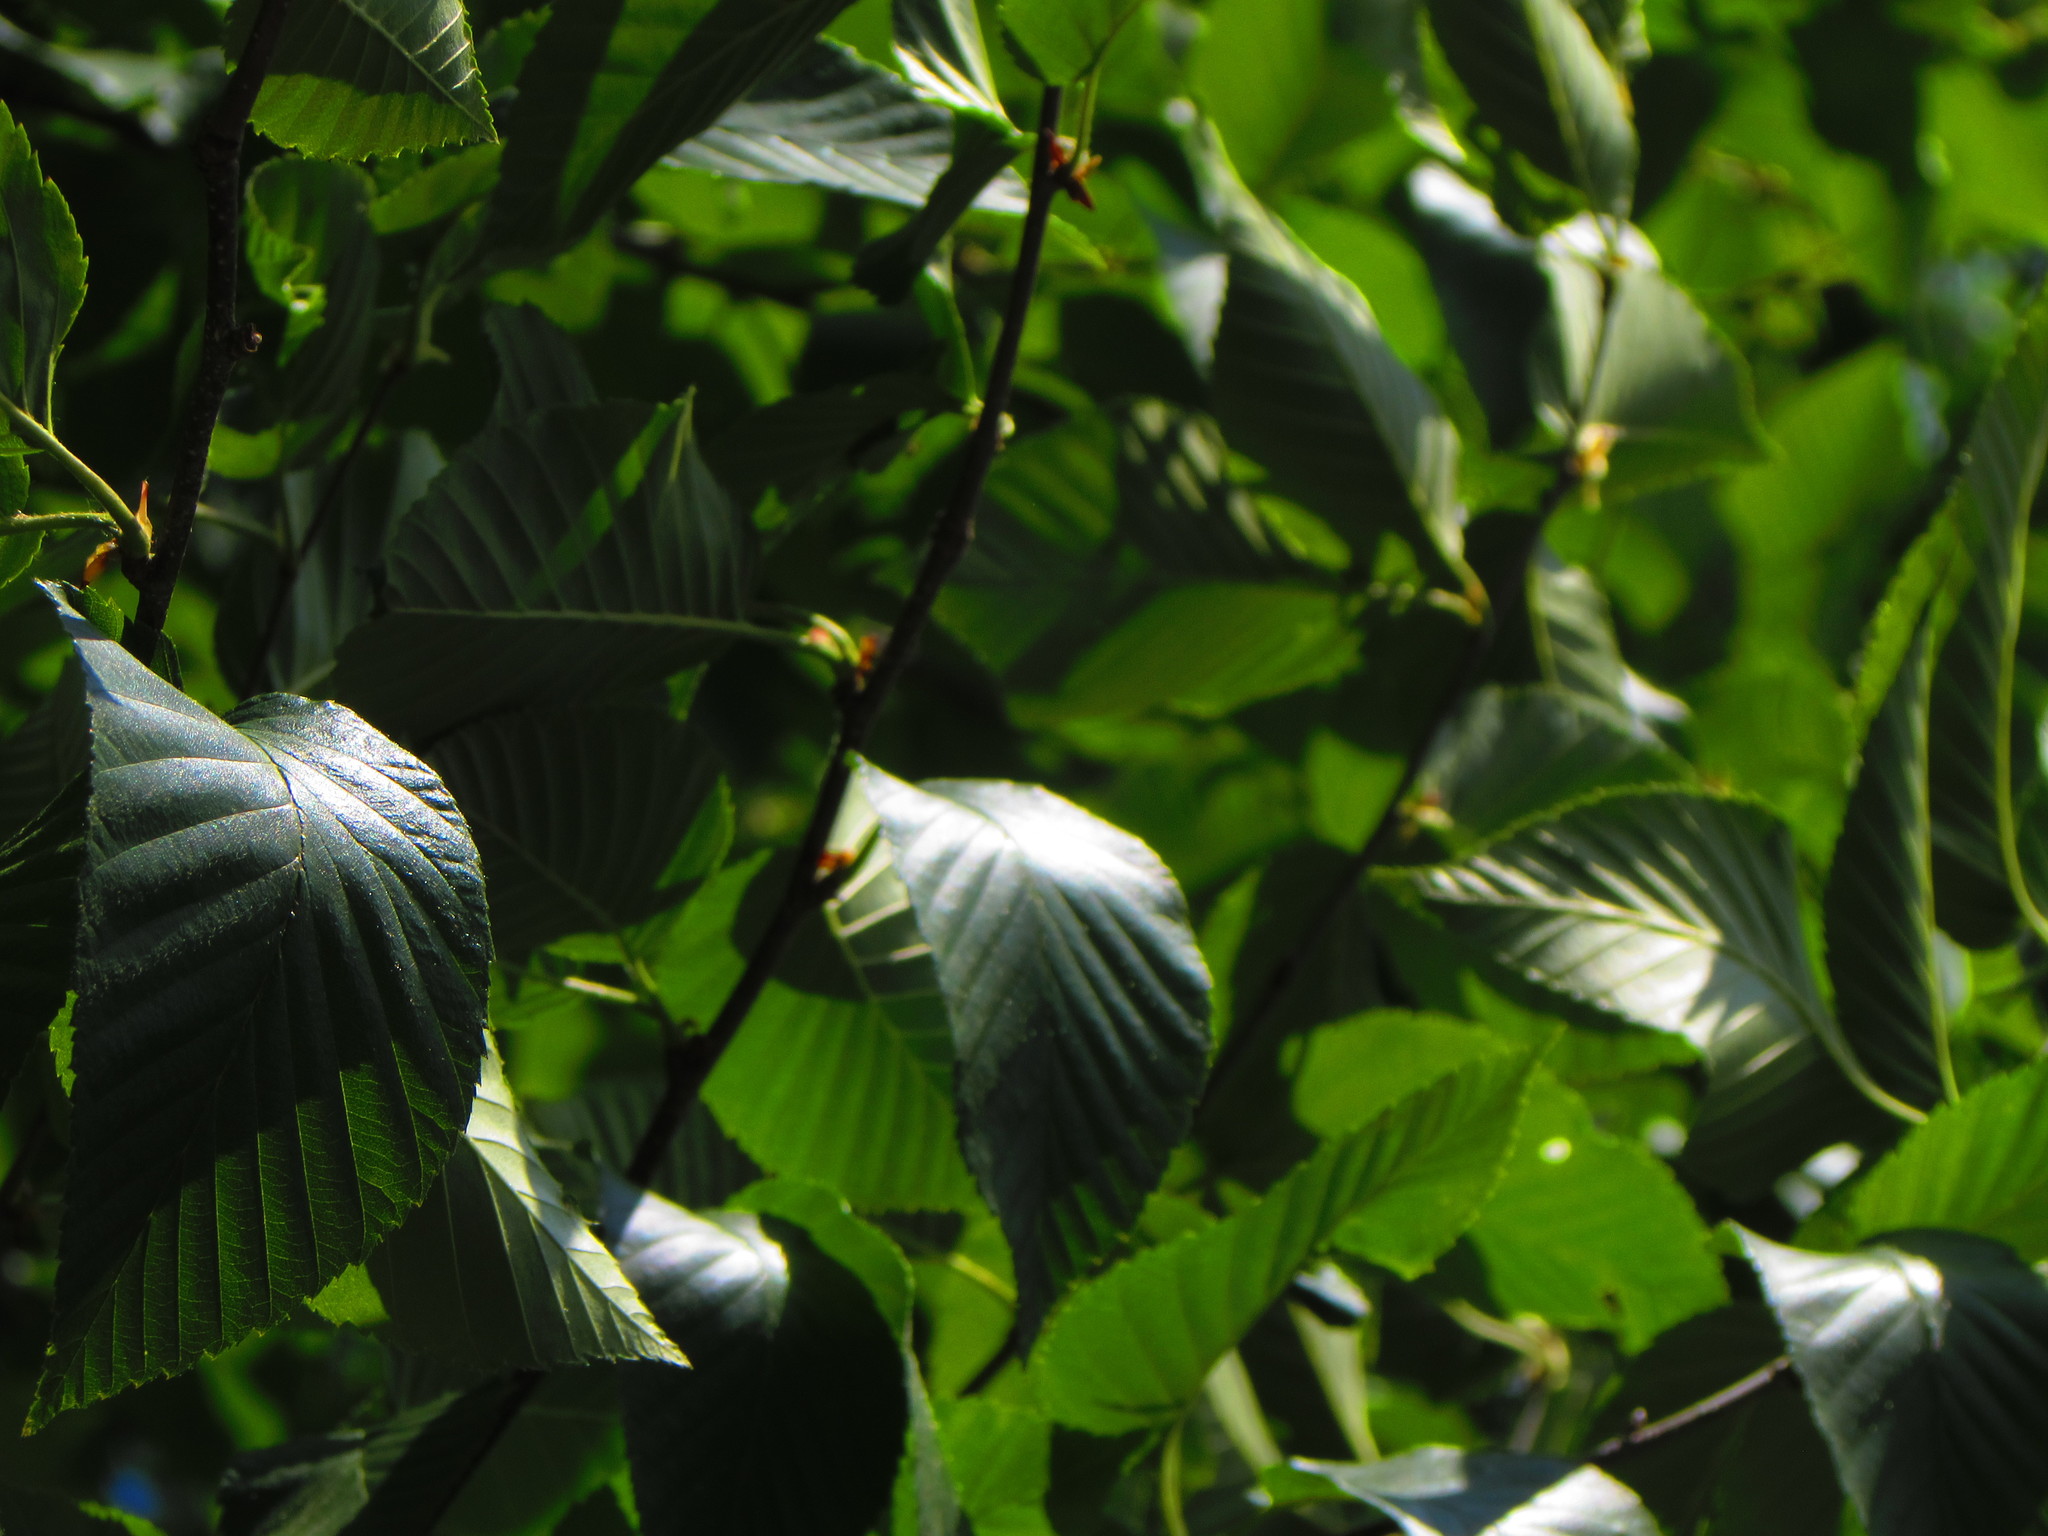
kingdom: Plantae
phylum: Tracheophyta
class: Magnoliopsida
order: Fagales
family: Betulaceae
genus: Betula
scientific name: Betula alleghaniensis
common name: Yellow birch
